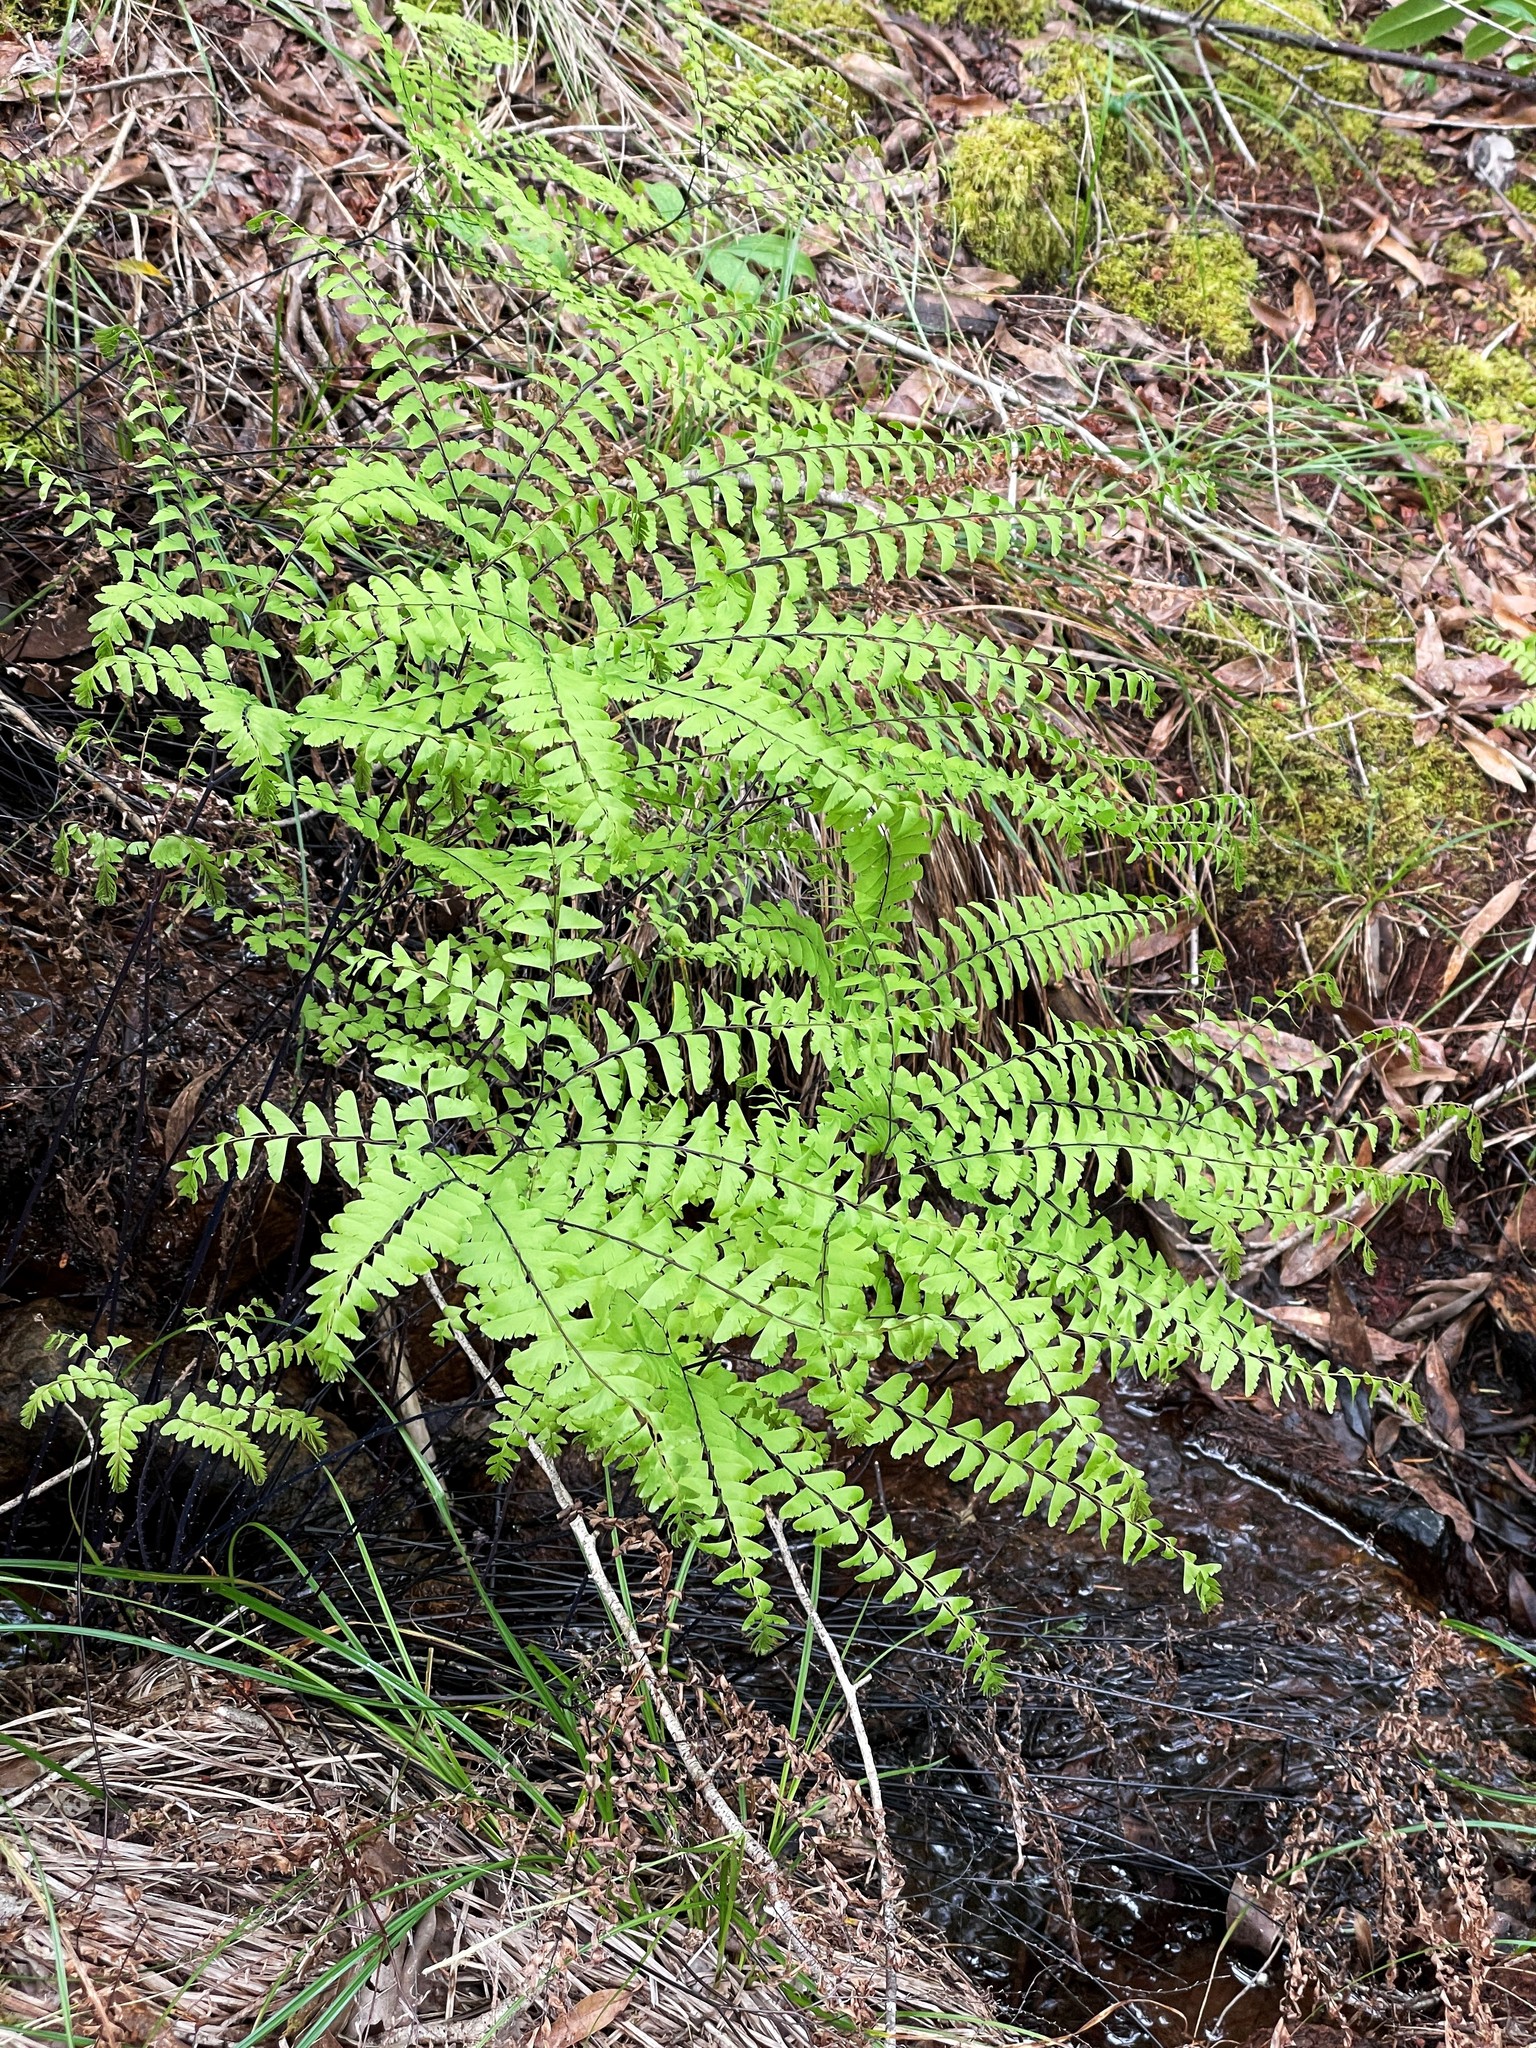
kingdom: Plantae
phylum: Tracheophyta
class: Polypodiopsida
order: Polypodiales
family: Pteridaceae
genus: Adiantum
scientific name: Adiantum aleuticum
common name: Aleutian maidenhair fern
